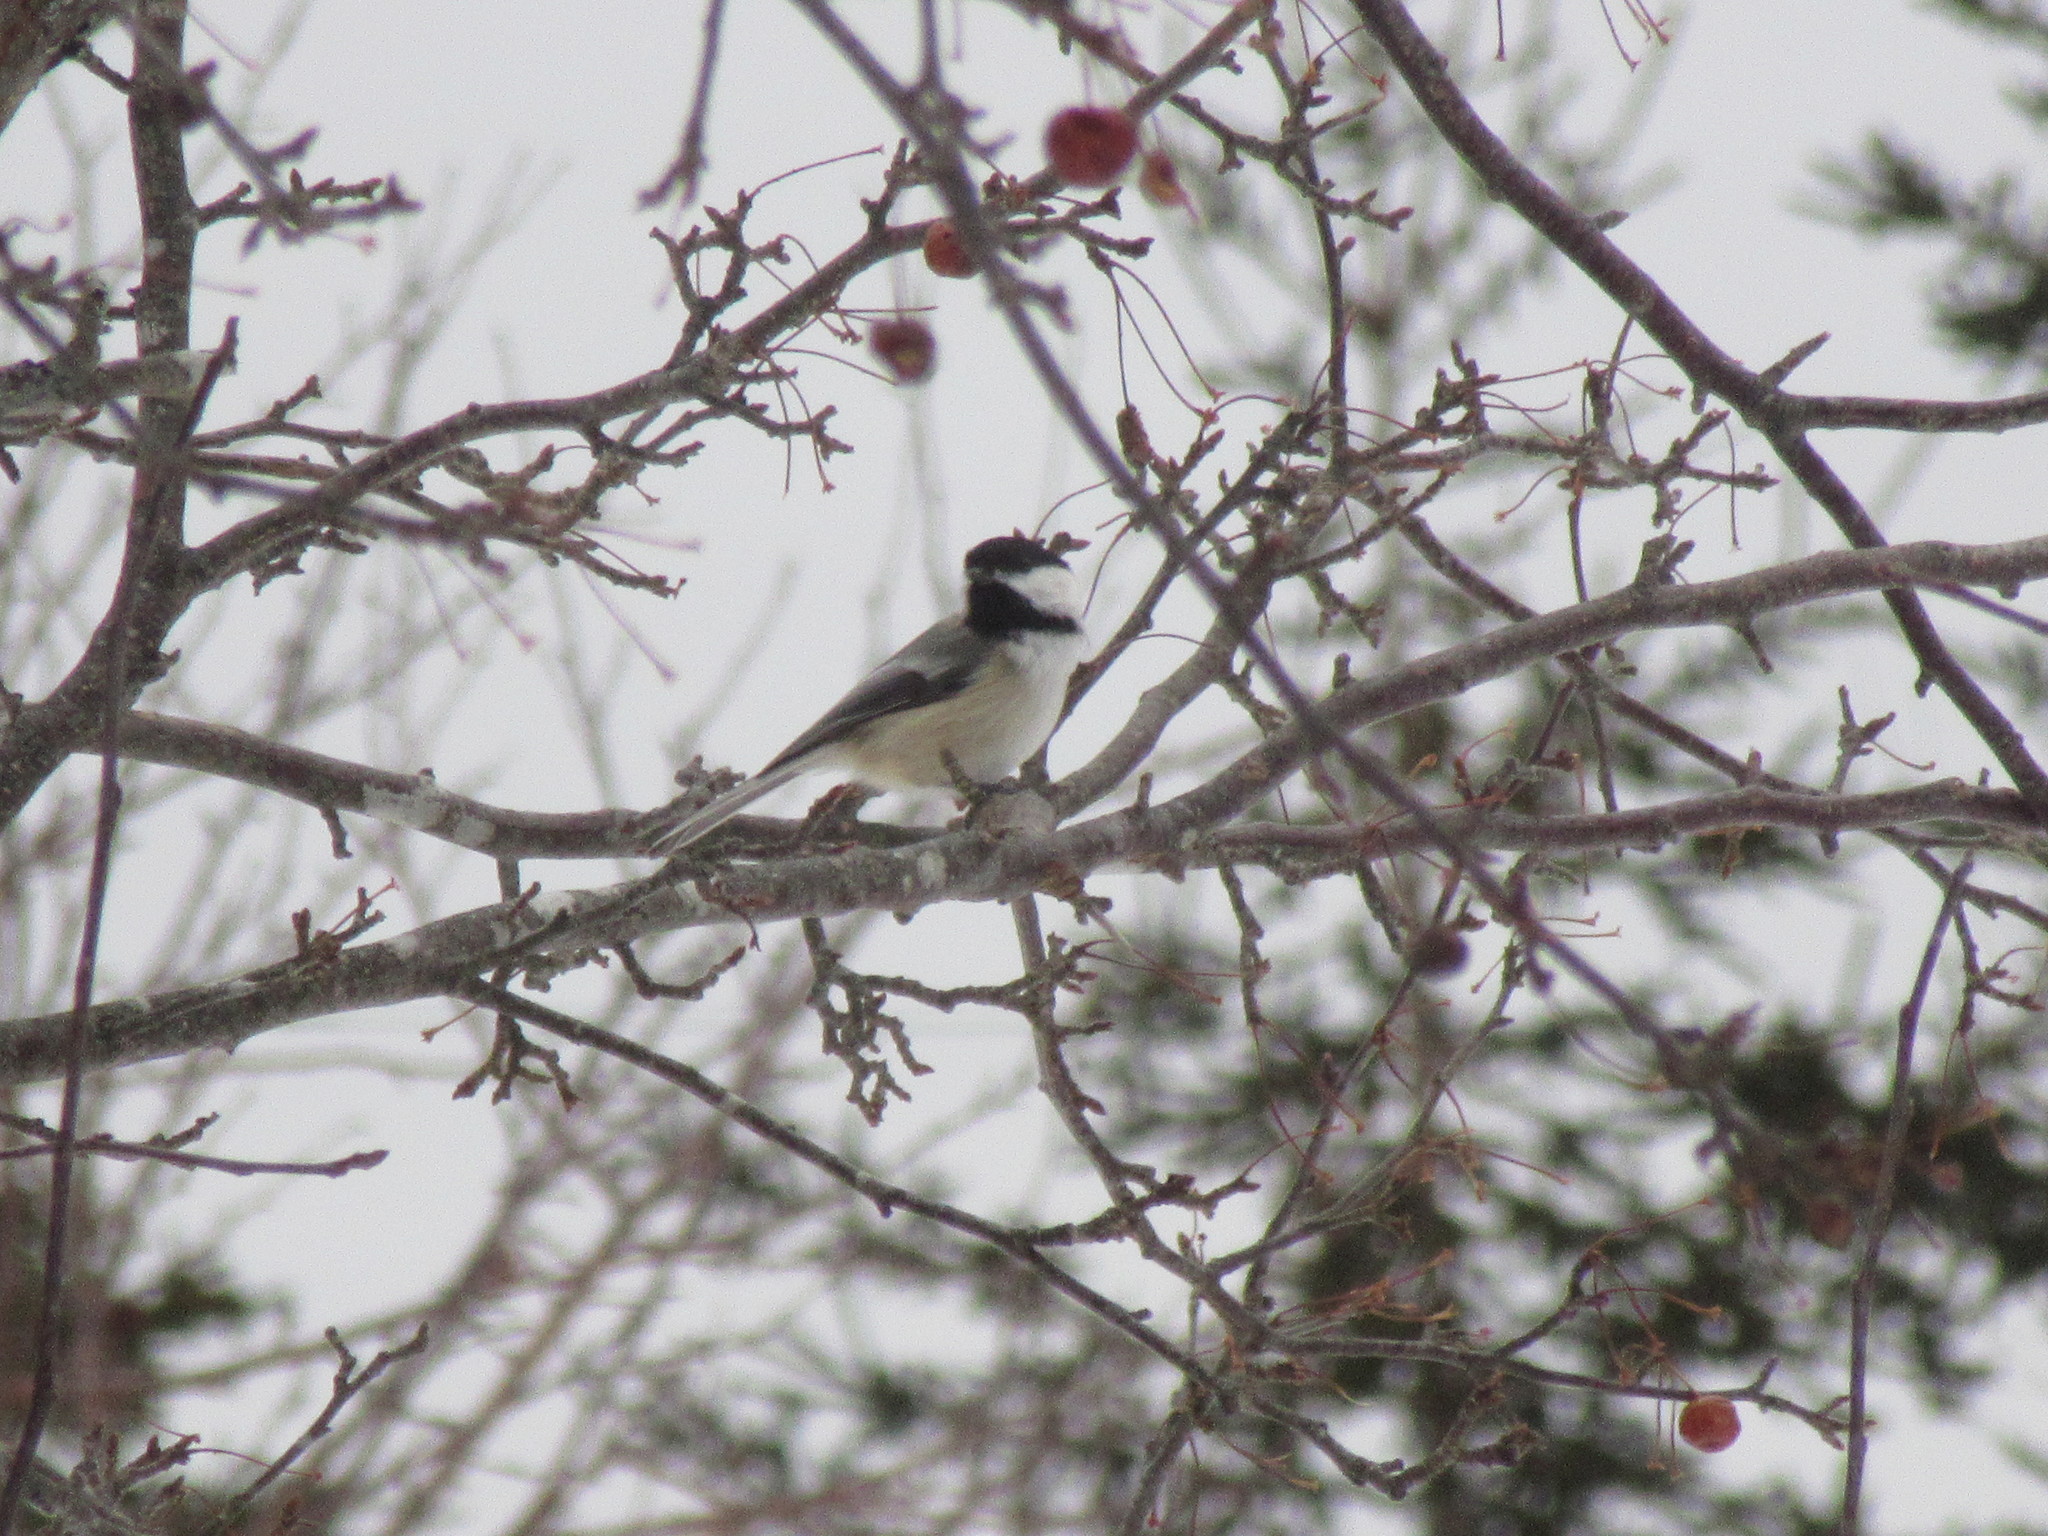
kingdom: Animalia
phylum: Chordata
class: Aves
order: Passeriformes
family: Paridae
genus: Poecile
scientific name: Poecile atricapillus
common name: Black-capped chickadee
